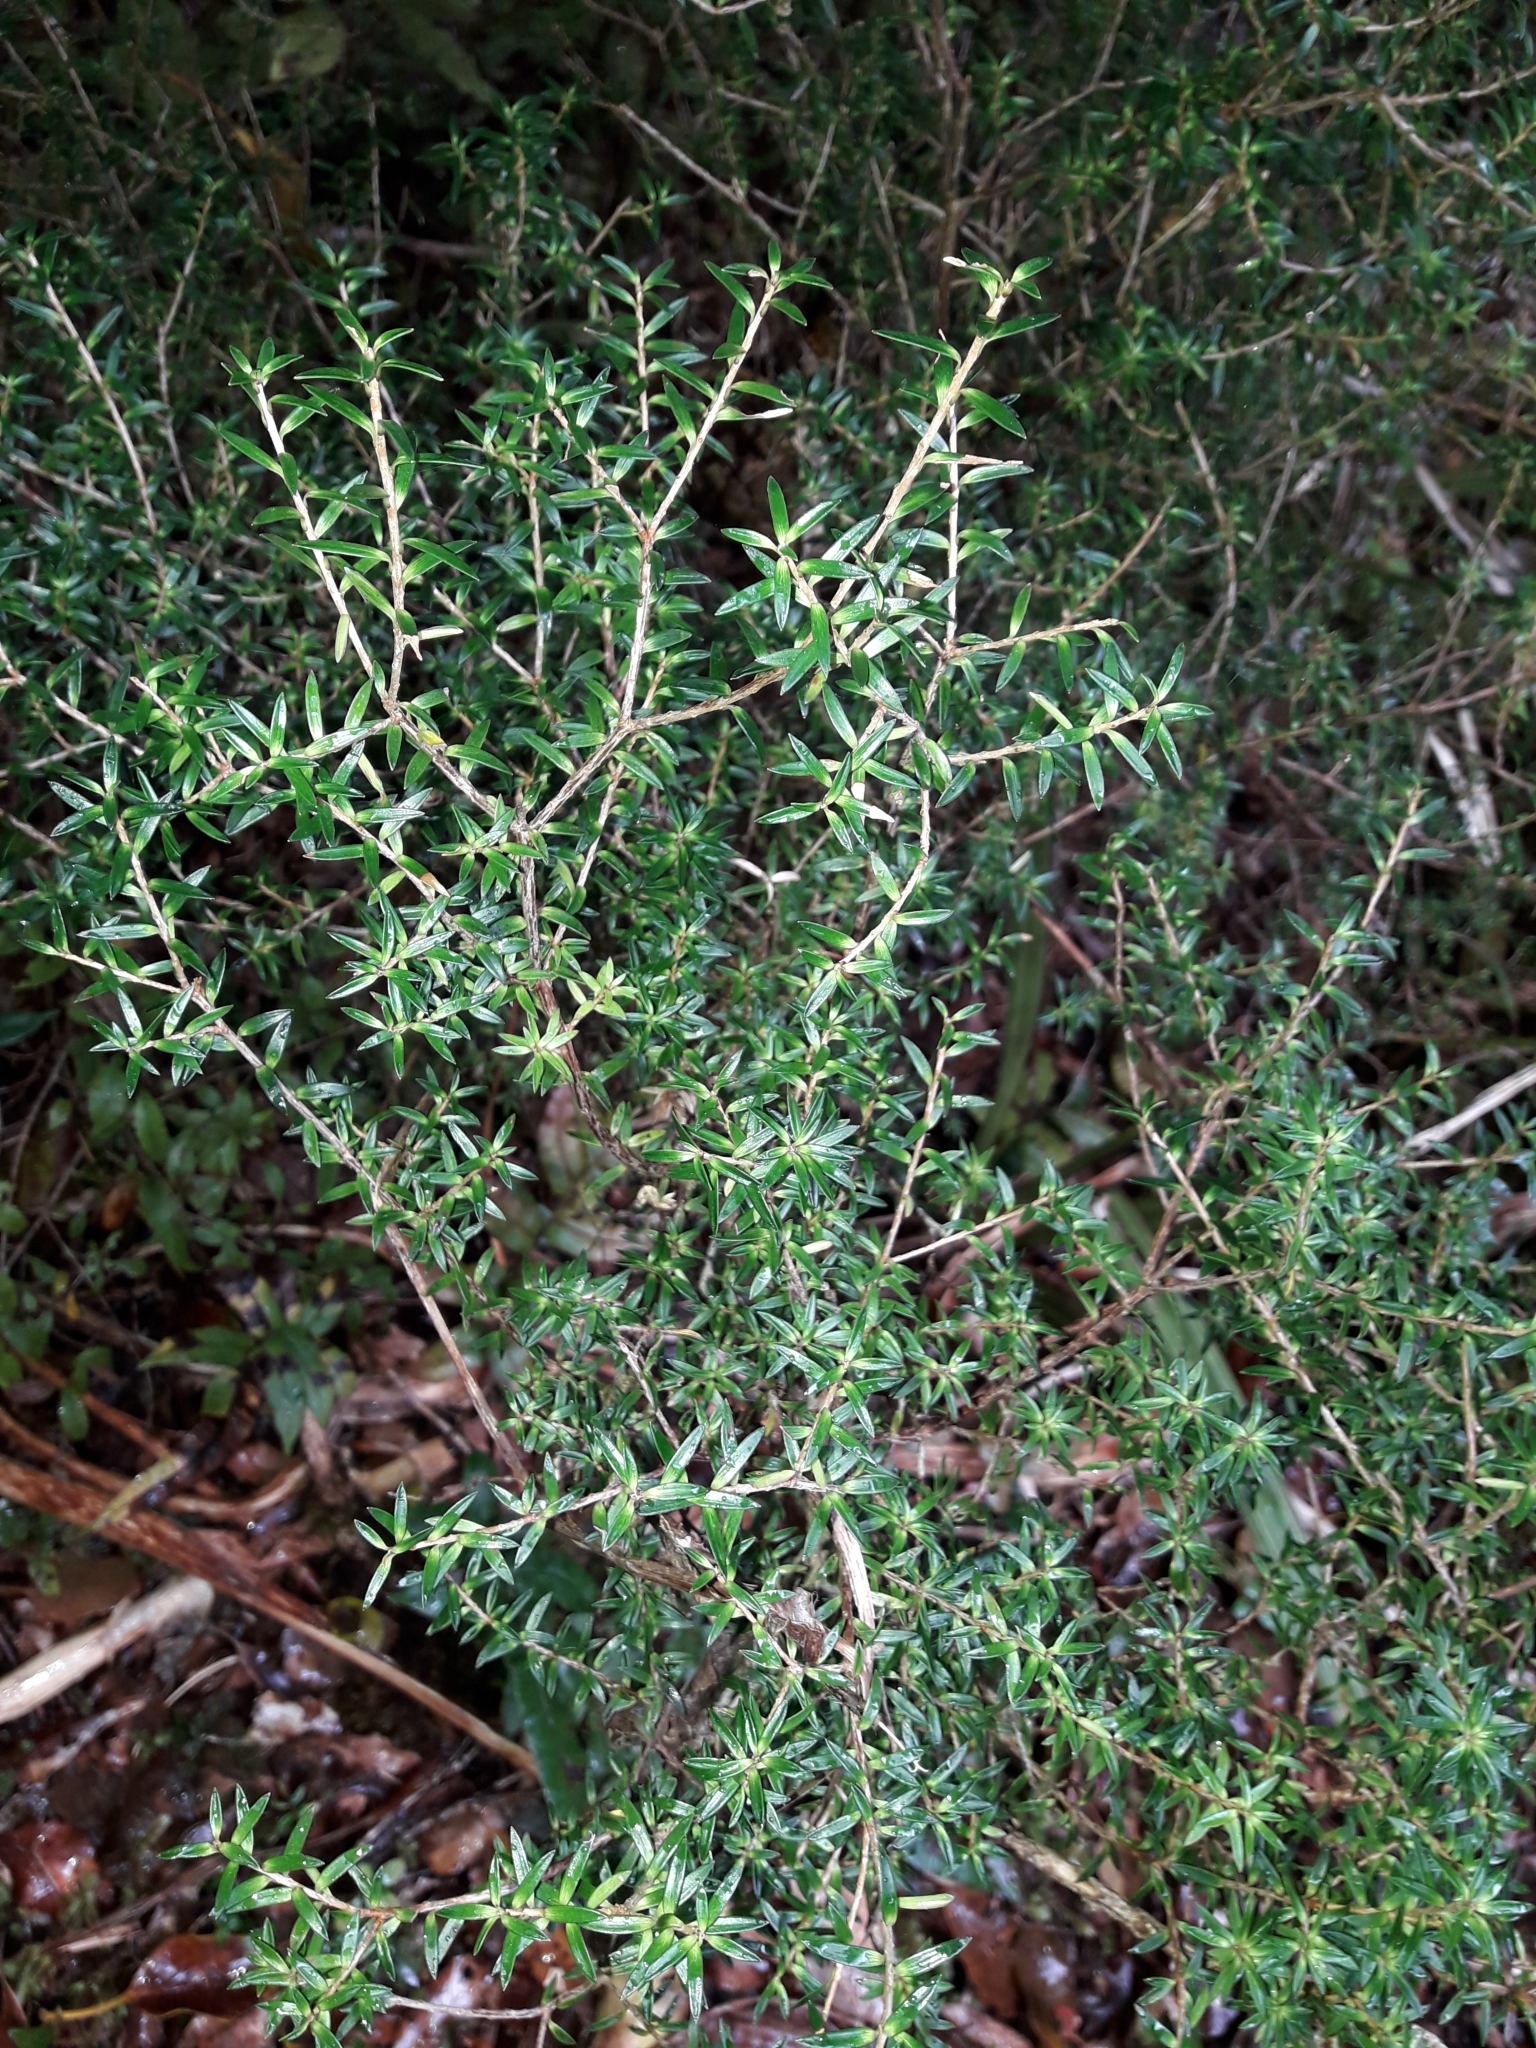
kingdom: Plantae
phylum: Tracheophyta
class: Magnoliopsida
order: Ericales
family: Ericaceae
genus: Archeria
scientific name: Archeria traversii
